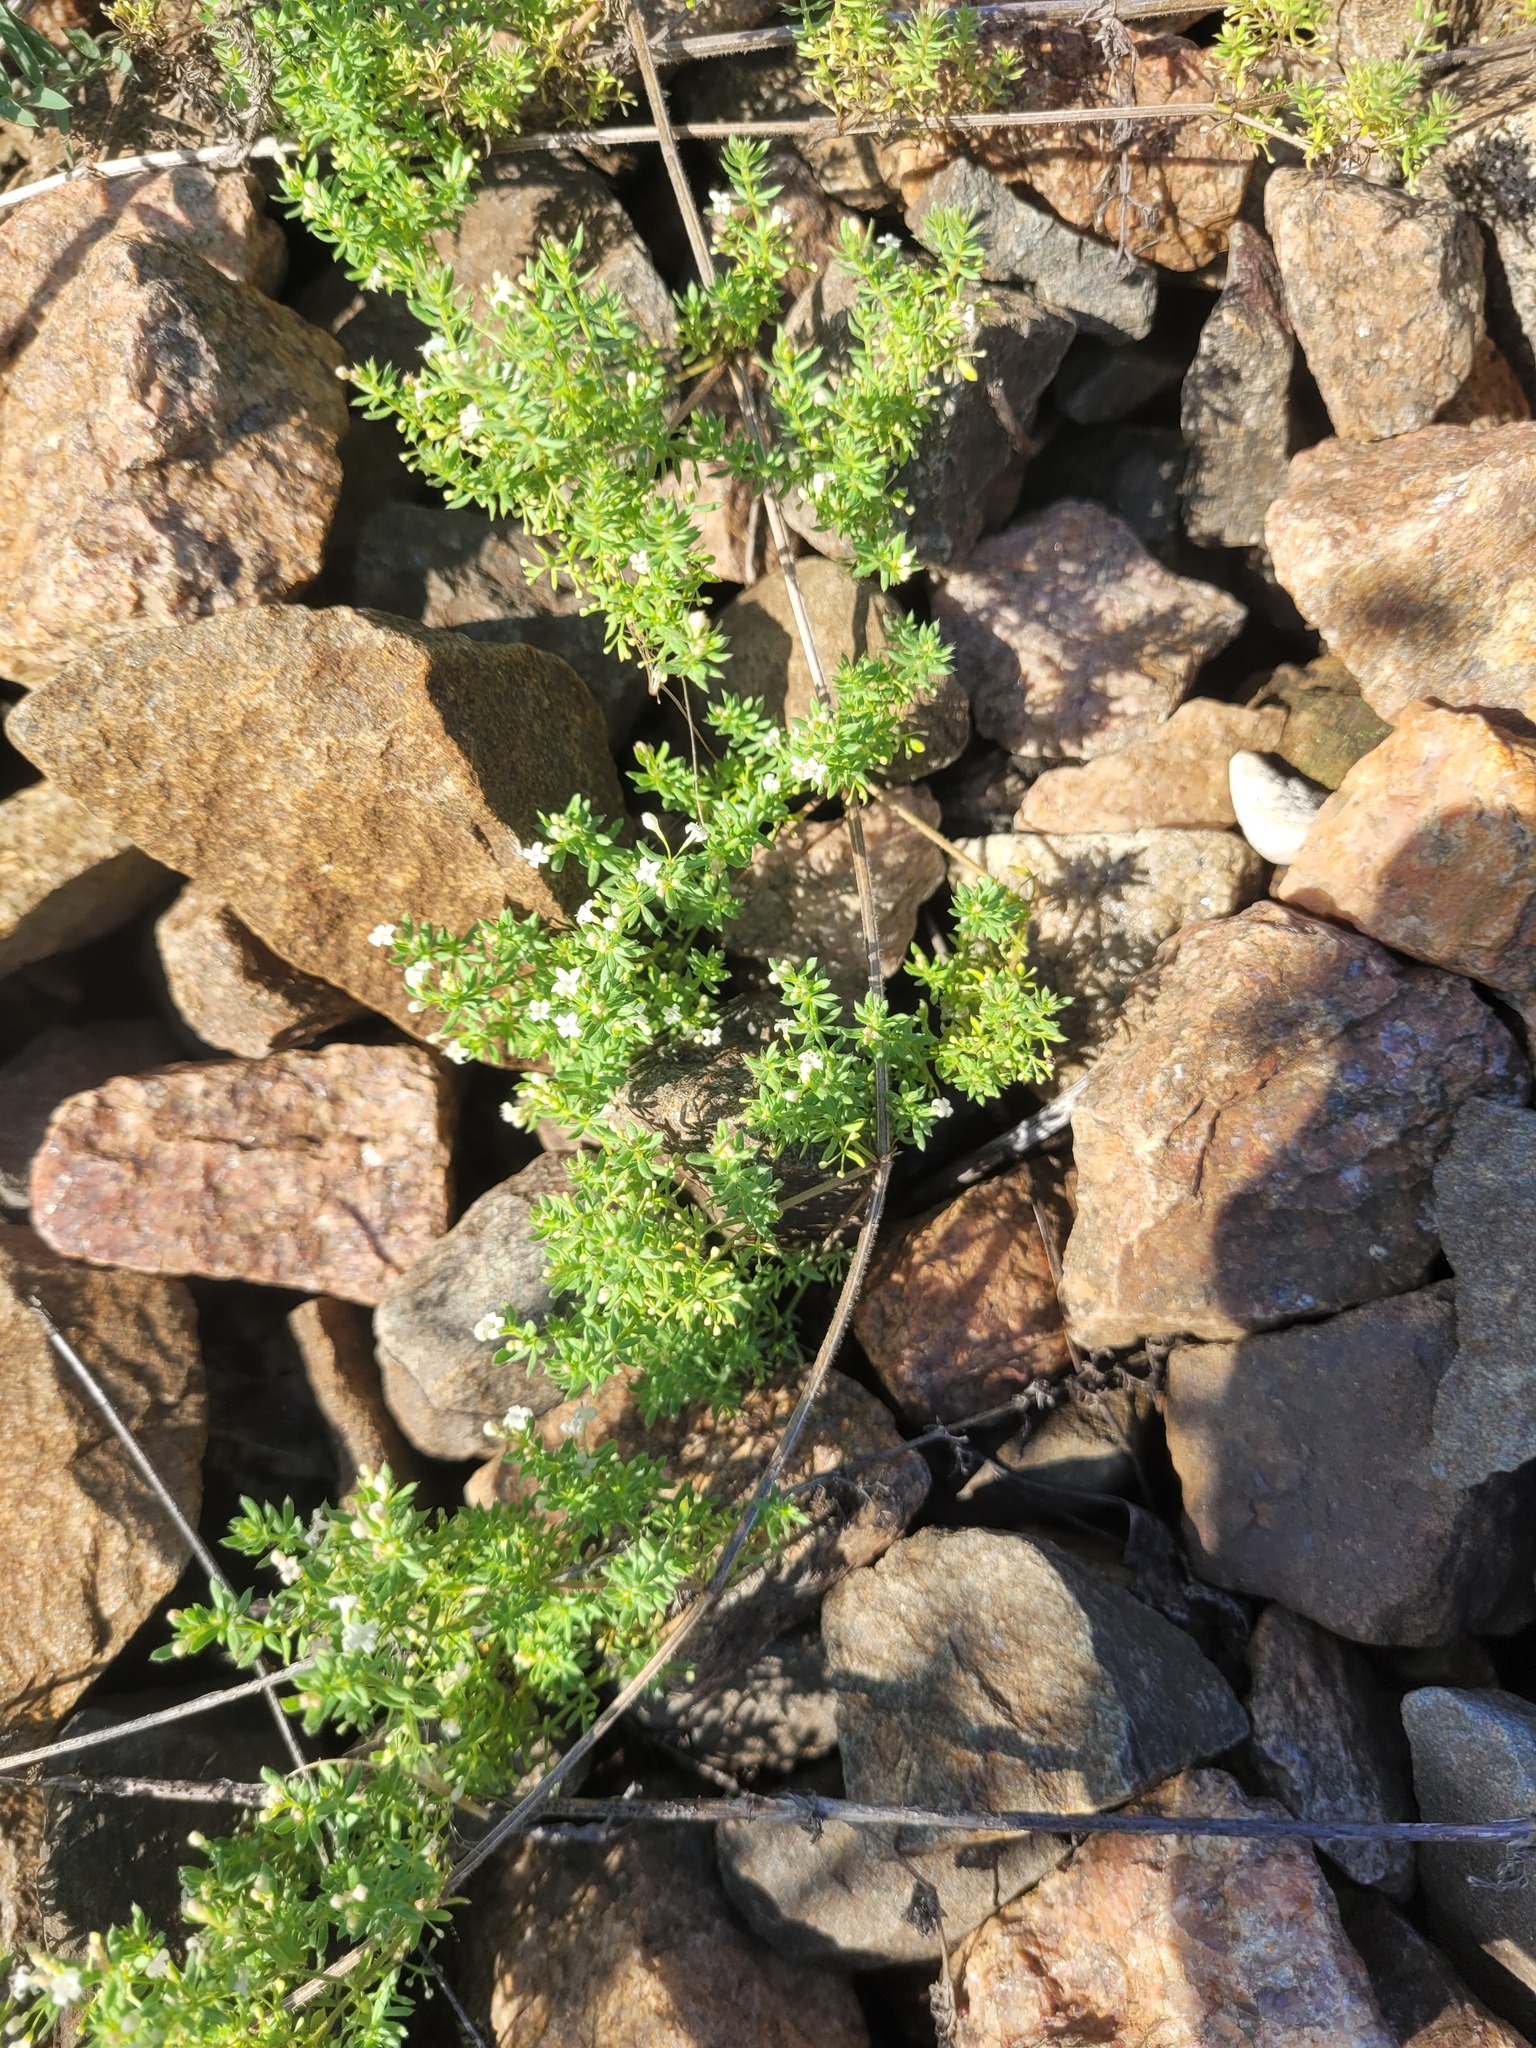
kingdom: Plantae
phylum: Tracheophyta
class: Magnoliopsida
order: Gentianales
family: Rubiaceae
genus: Galium
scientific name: Galium humifusum
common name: Spreading bedstraw
